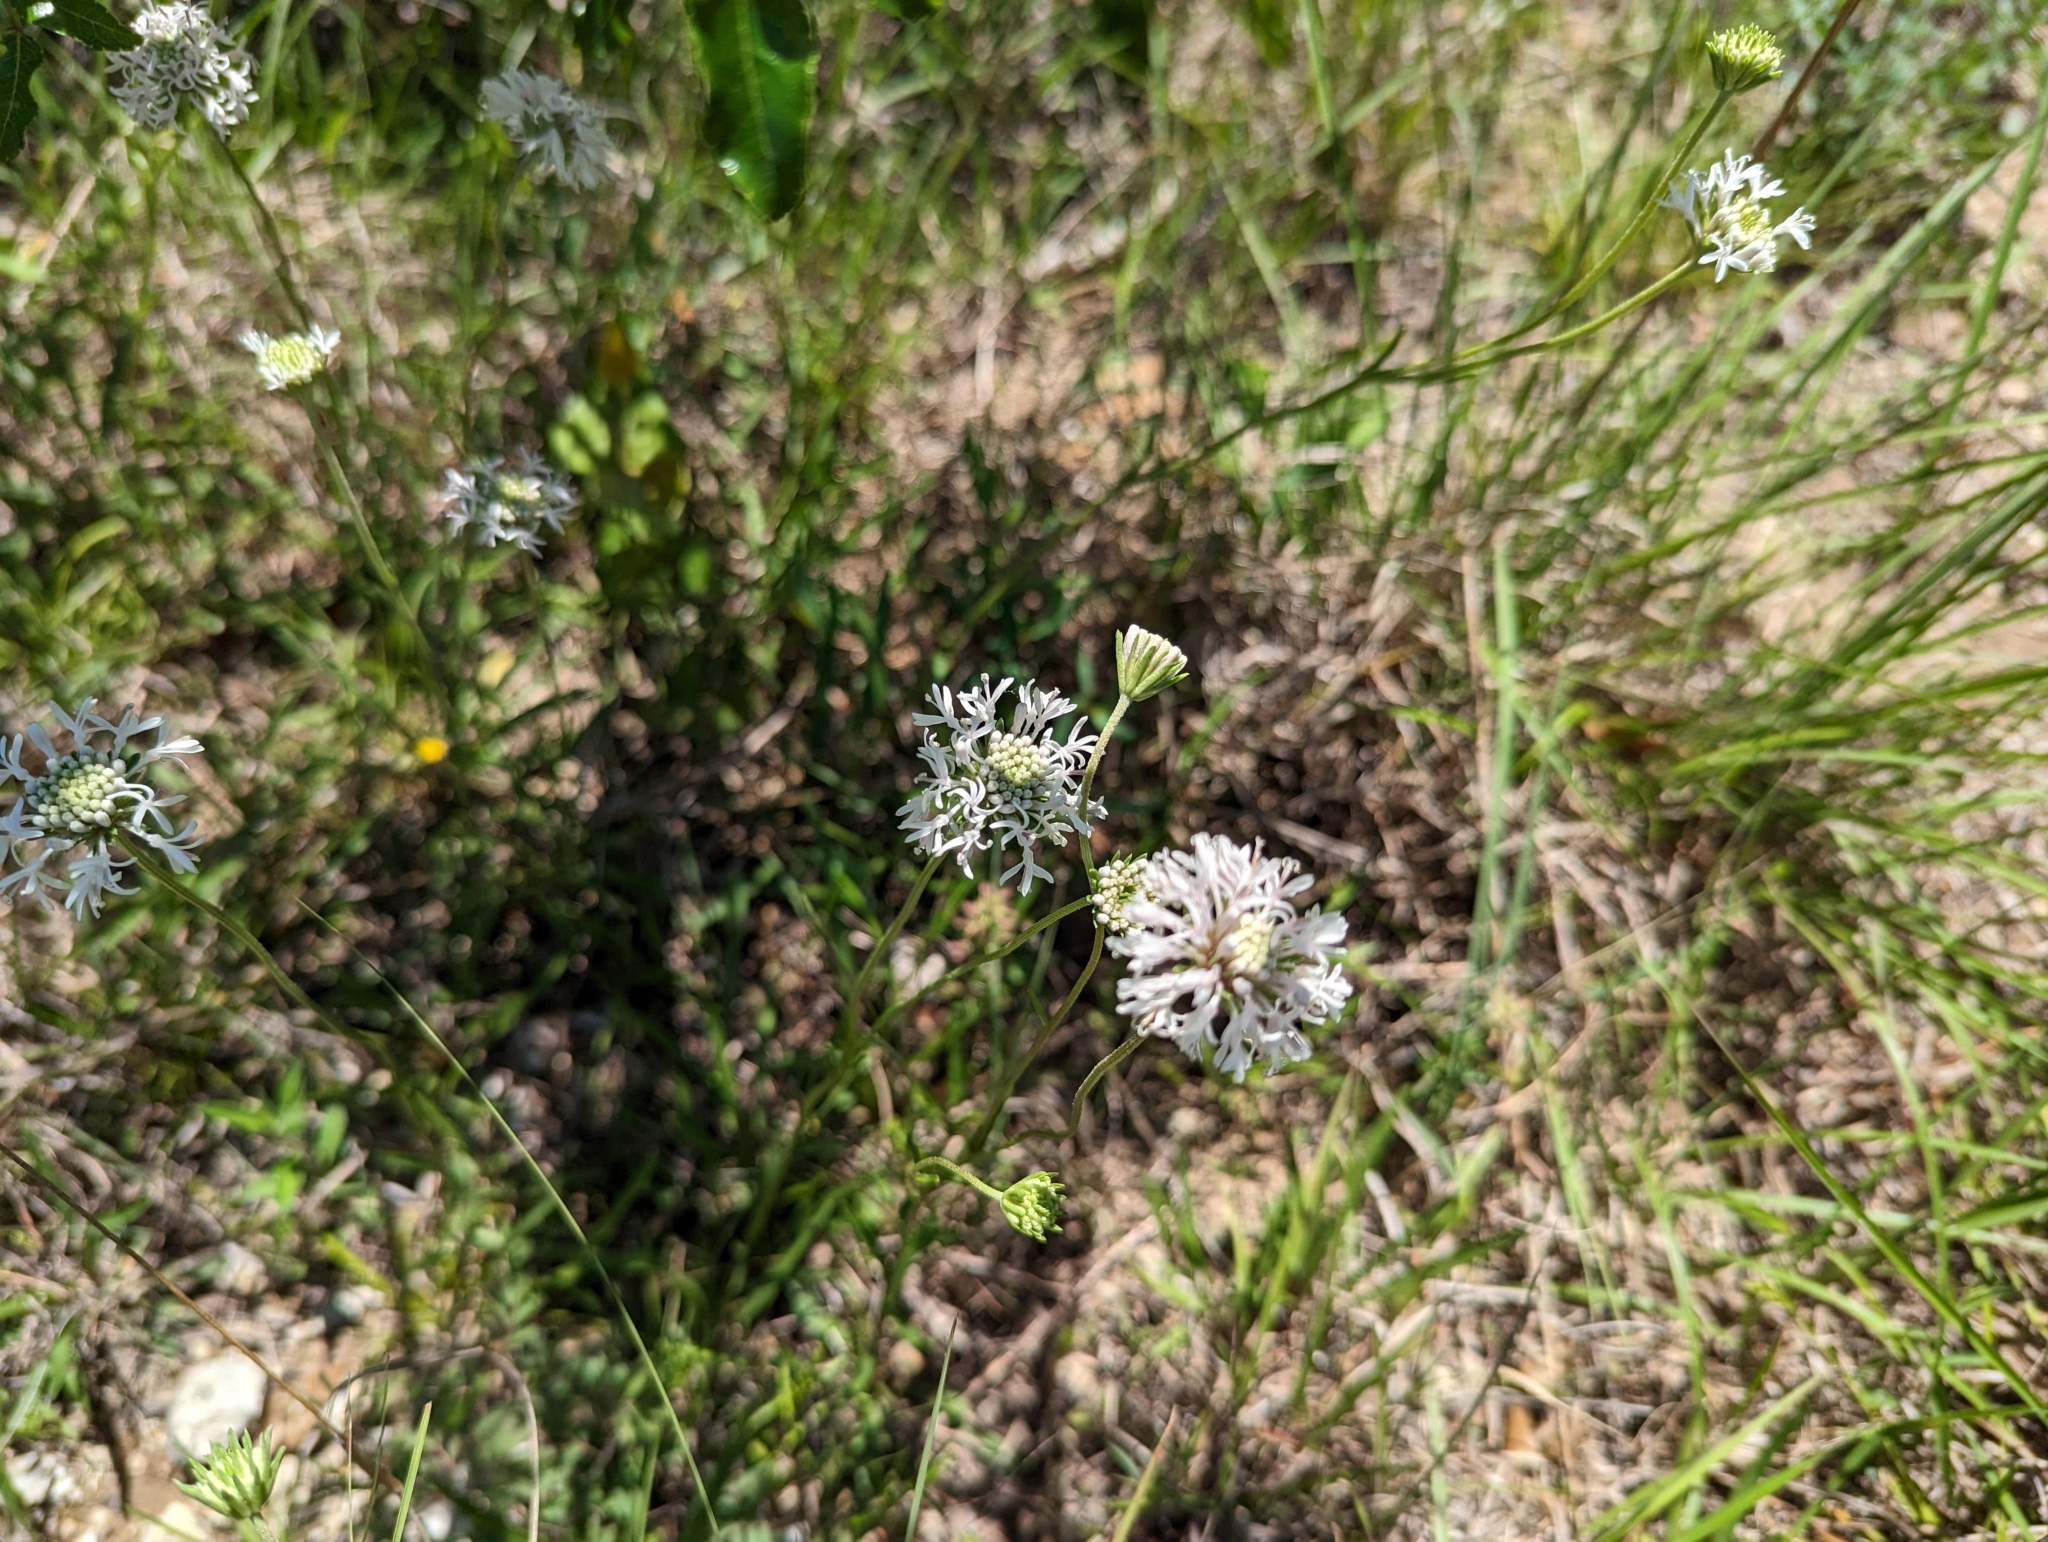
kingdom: Plantae
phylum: Tracheophyta
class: Magnoliopsida
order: Asterales
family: Asteraceae
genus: Marshallia
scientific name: Marshallia caespitosa
